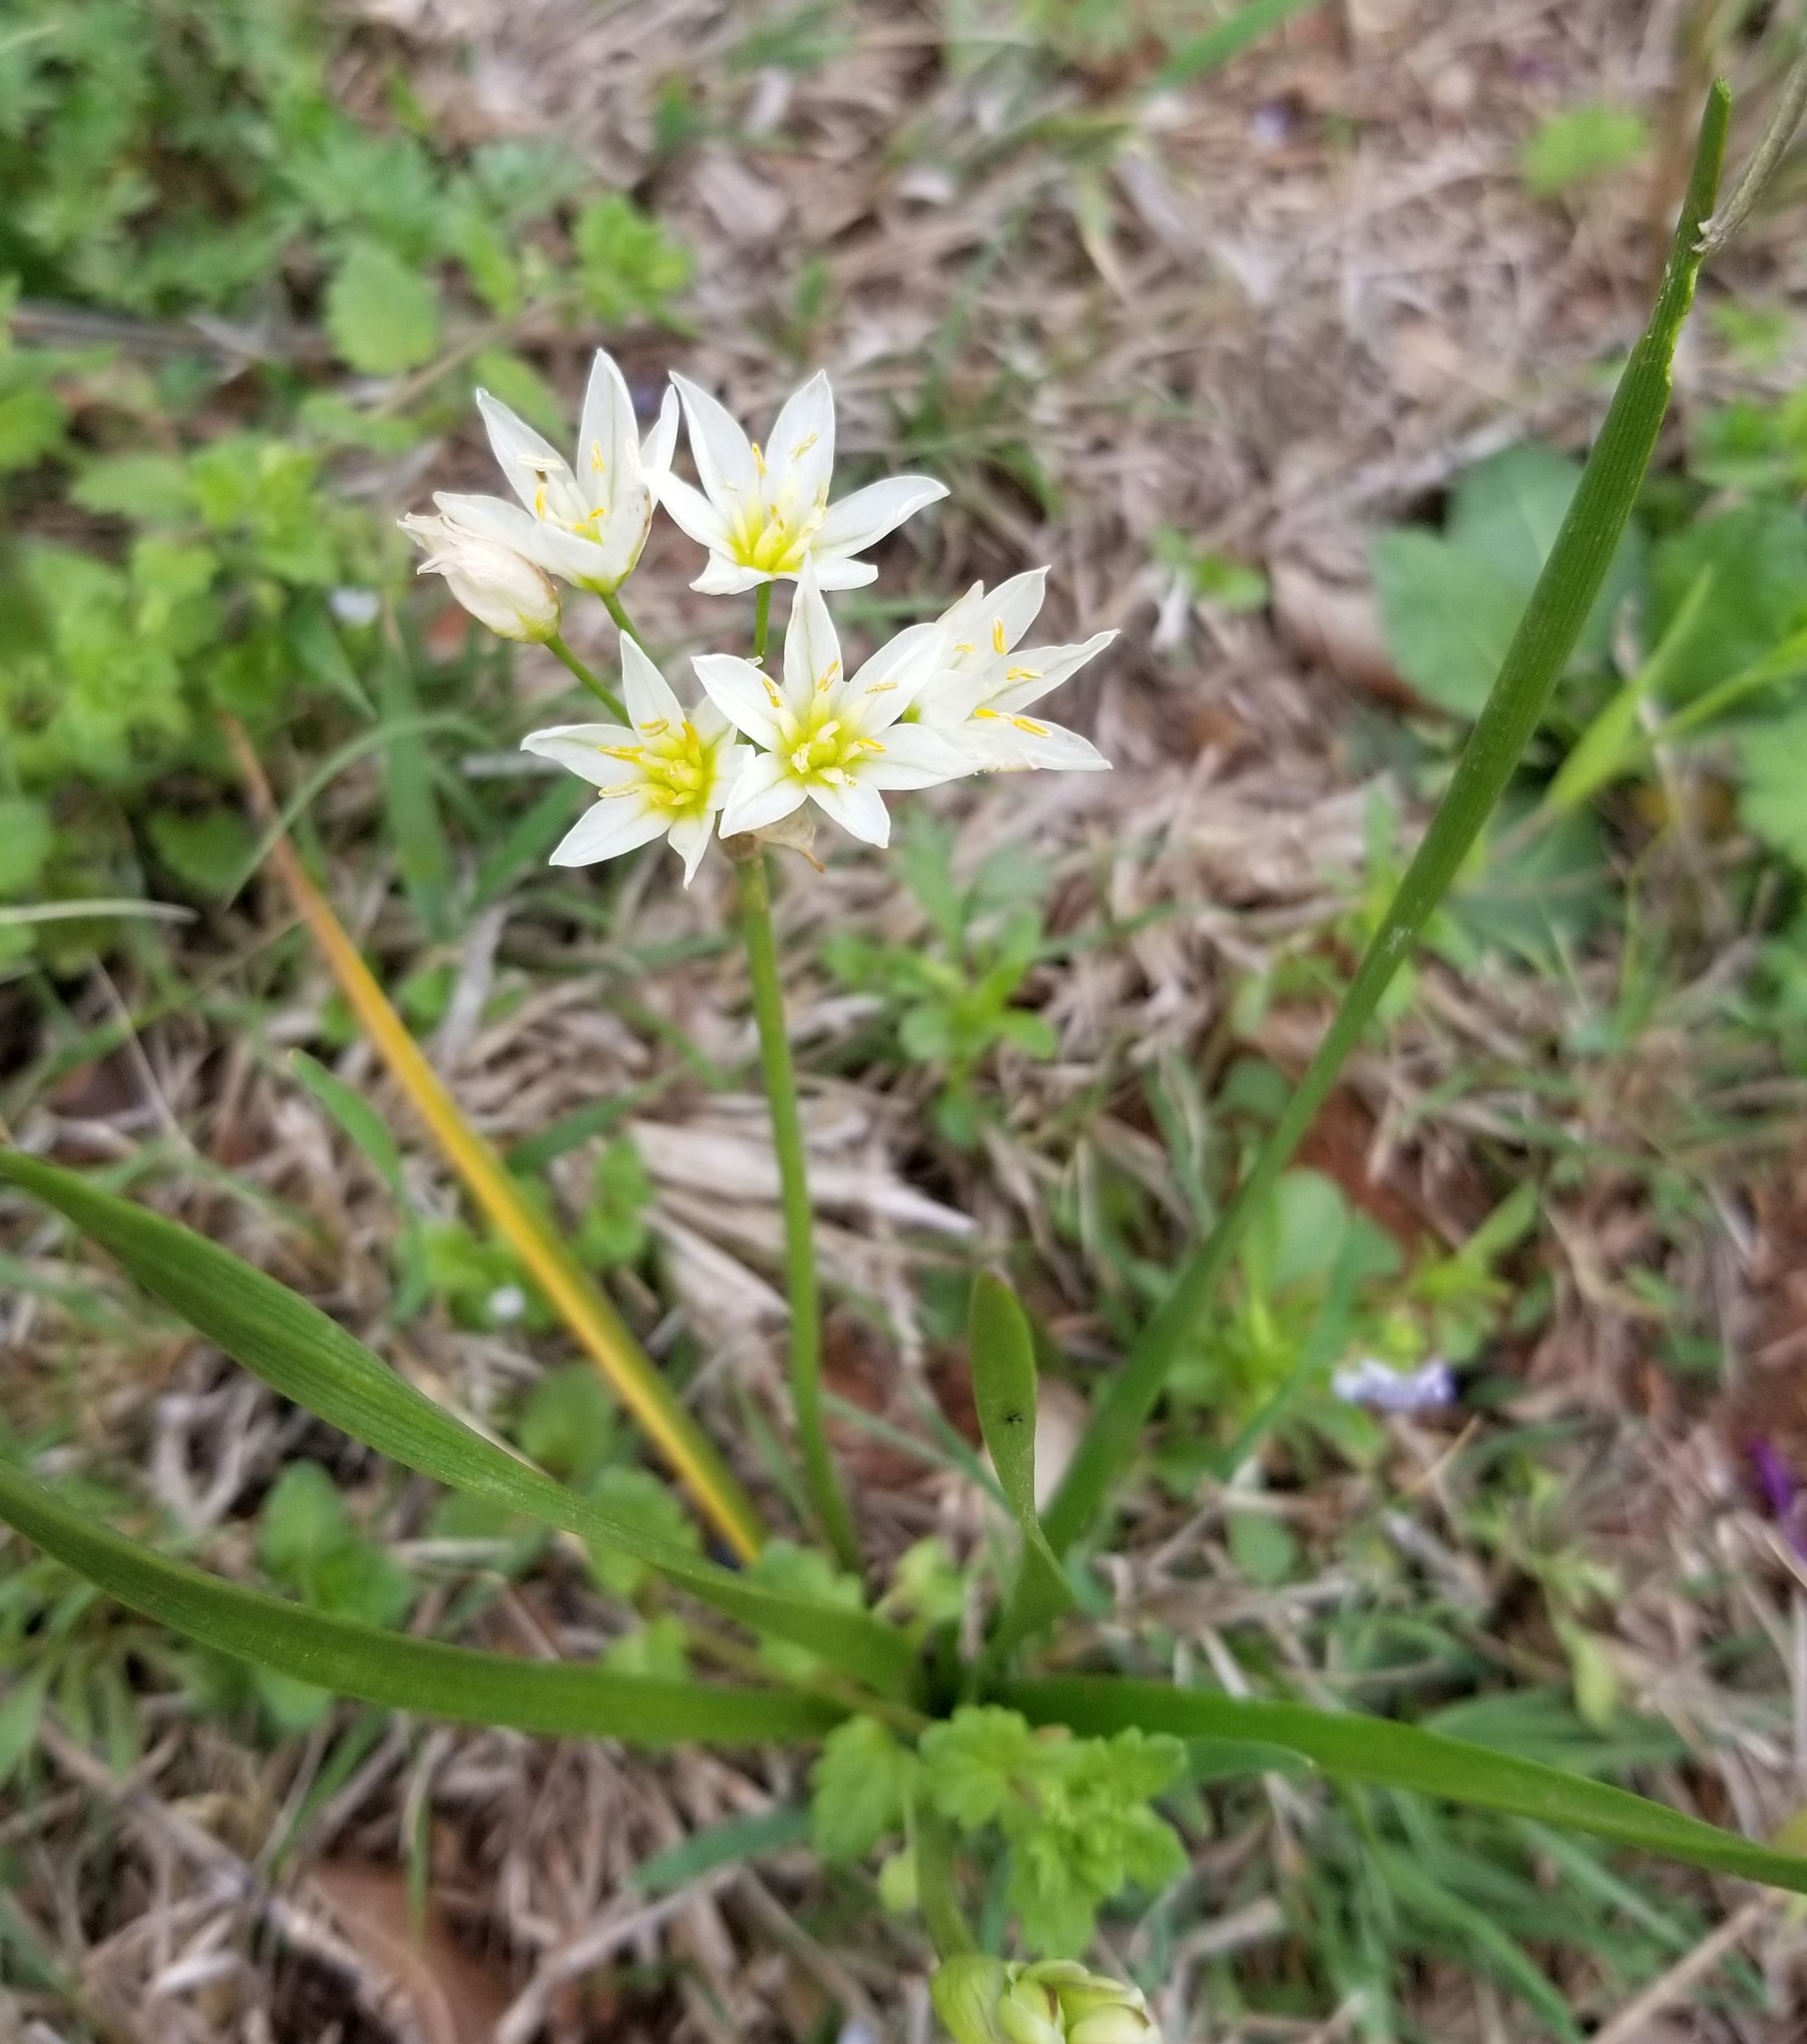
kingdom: Plantae
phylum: Tracheophyta
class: Liliopsida
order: Asparagales
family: Amaryllidaceae
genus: Nothoscordum
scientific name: Nothoscordum bivalve
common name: Crow-poison
